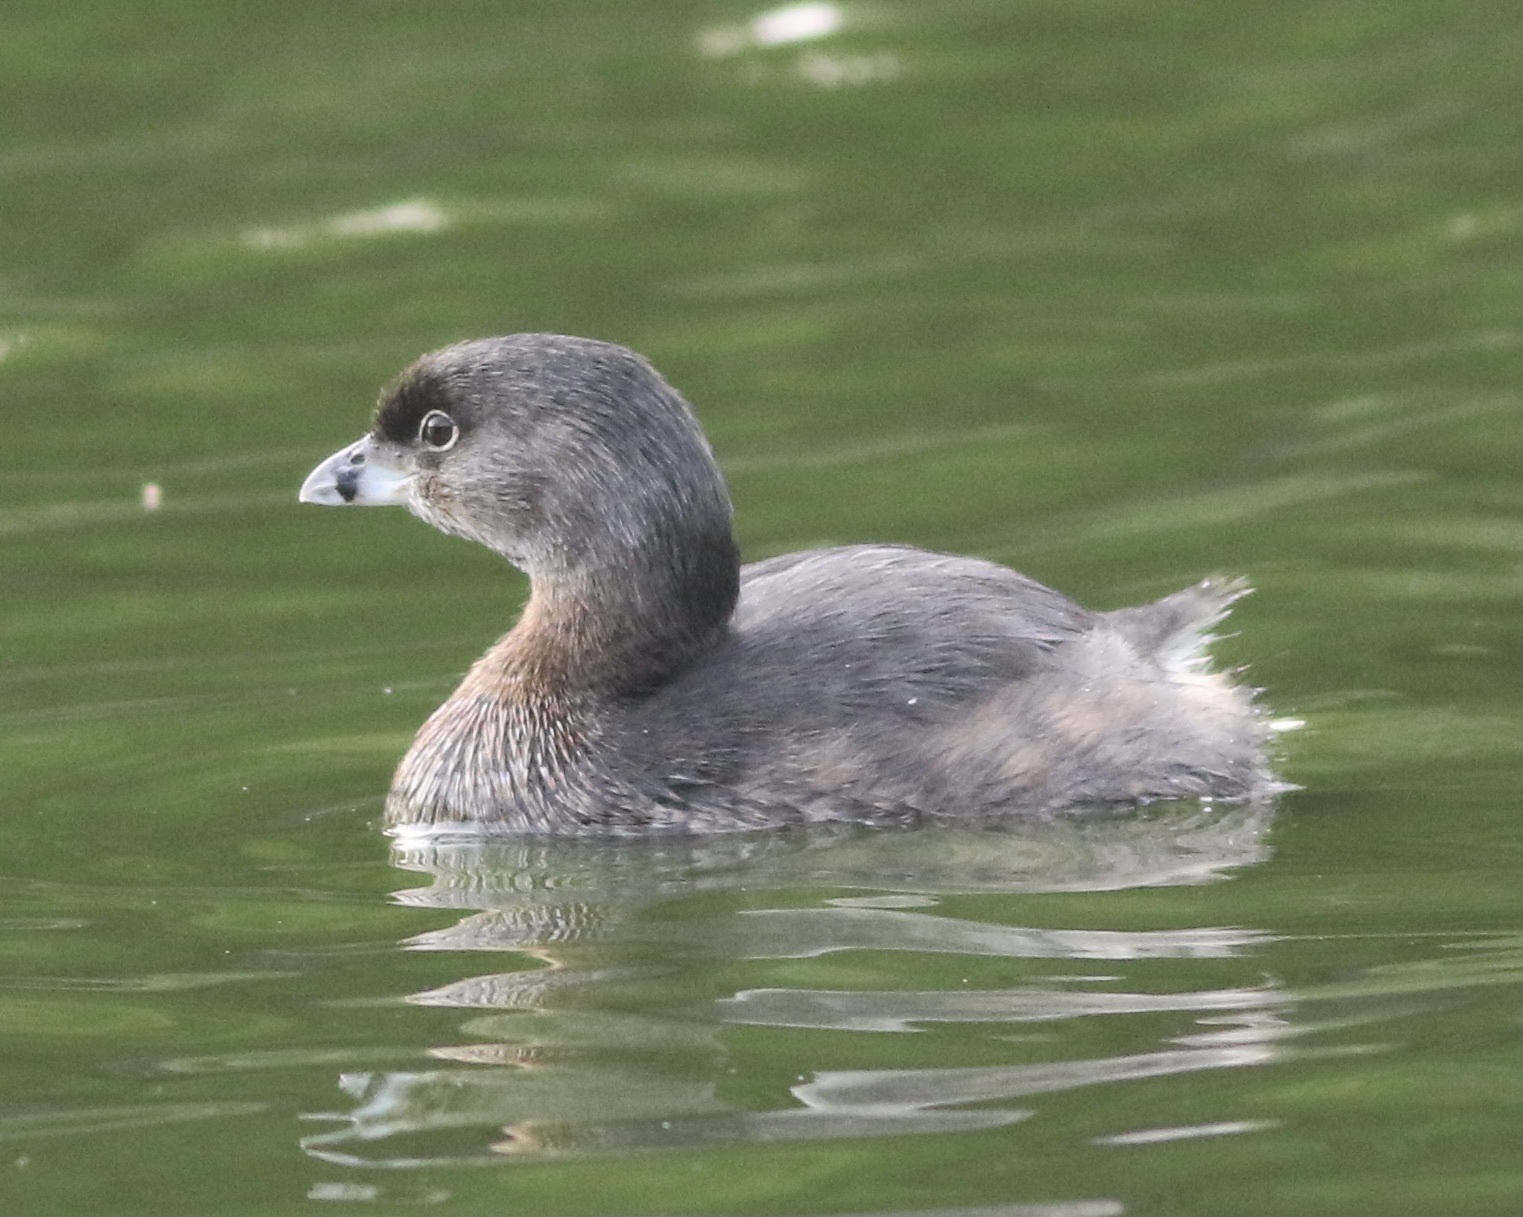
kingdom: Animalia
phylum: Chordata
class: Aves
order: Podicipediformes
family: Podicipedidae
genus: Podilymbus
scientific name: Podilymbus podiceps
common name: Pied-billed grebe
